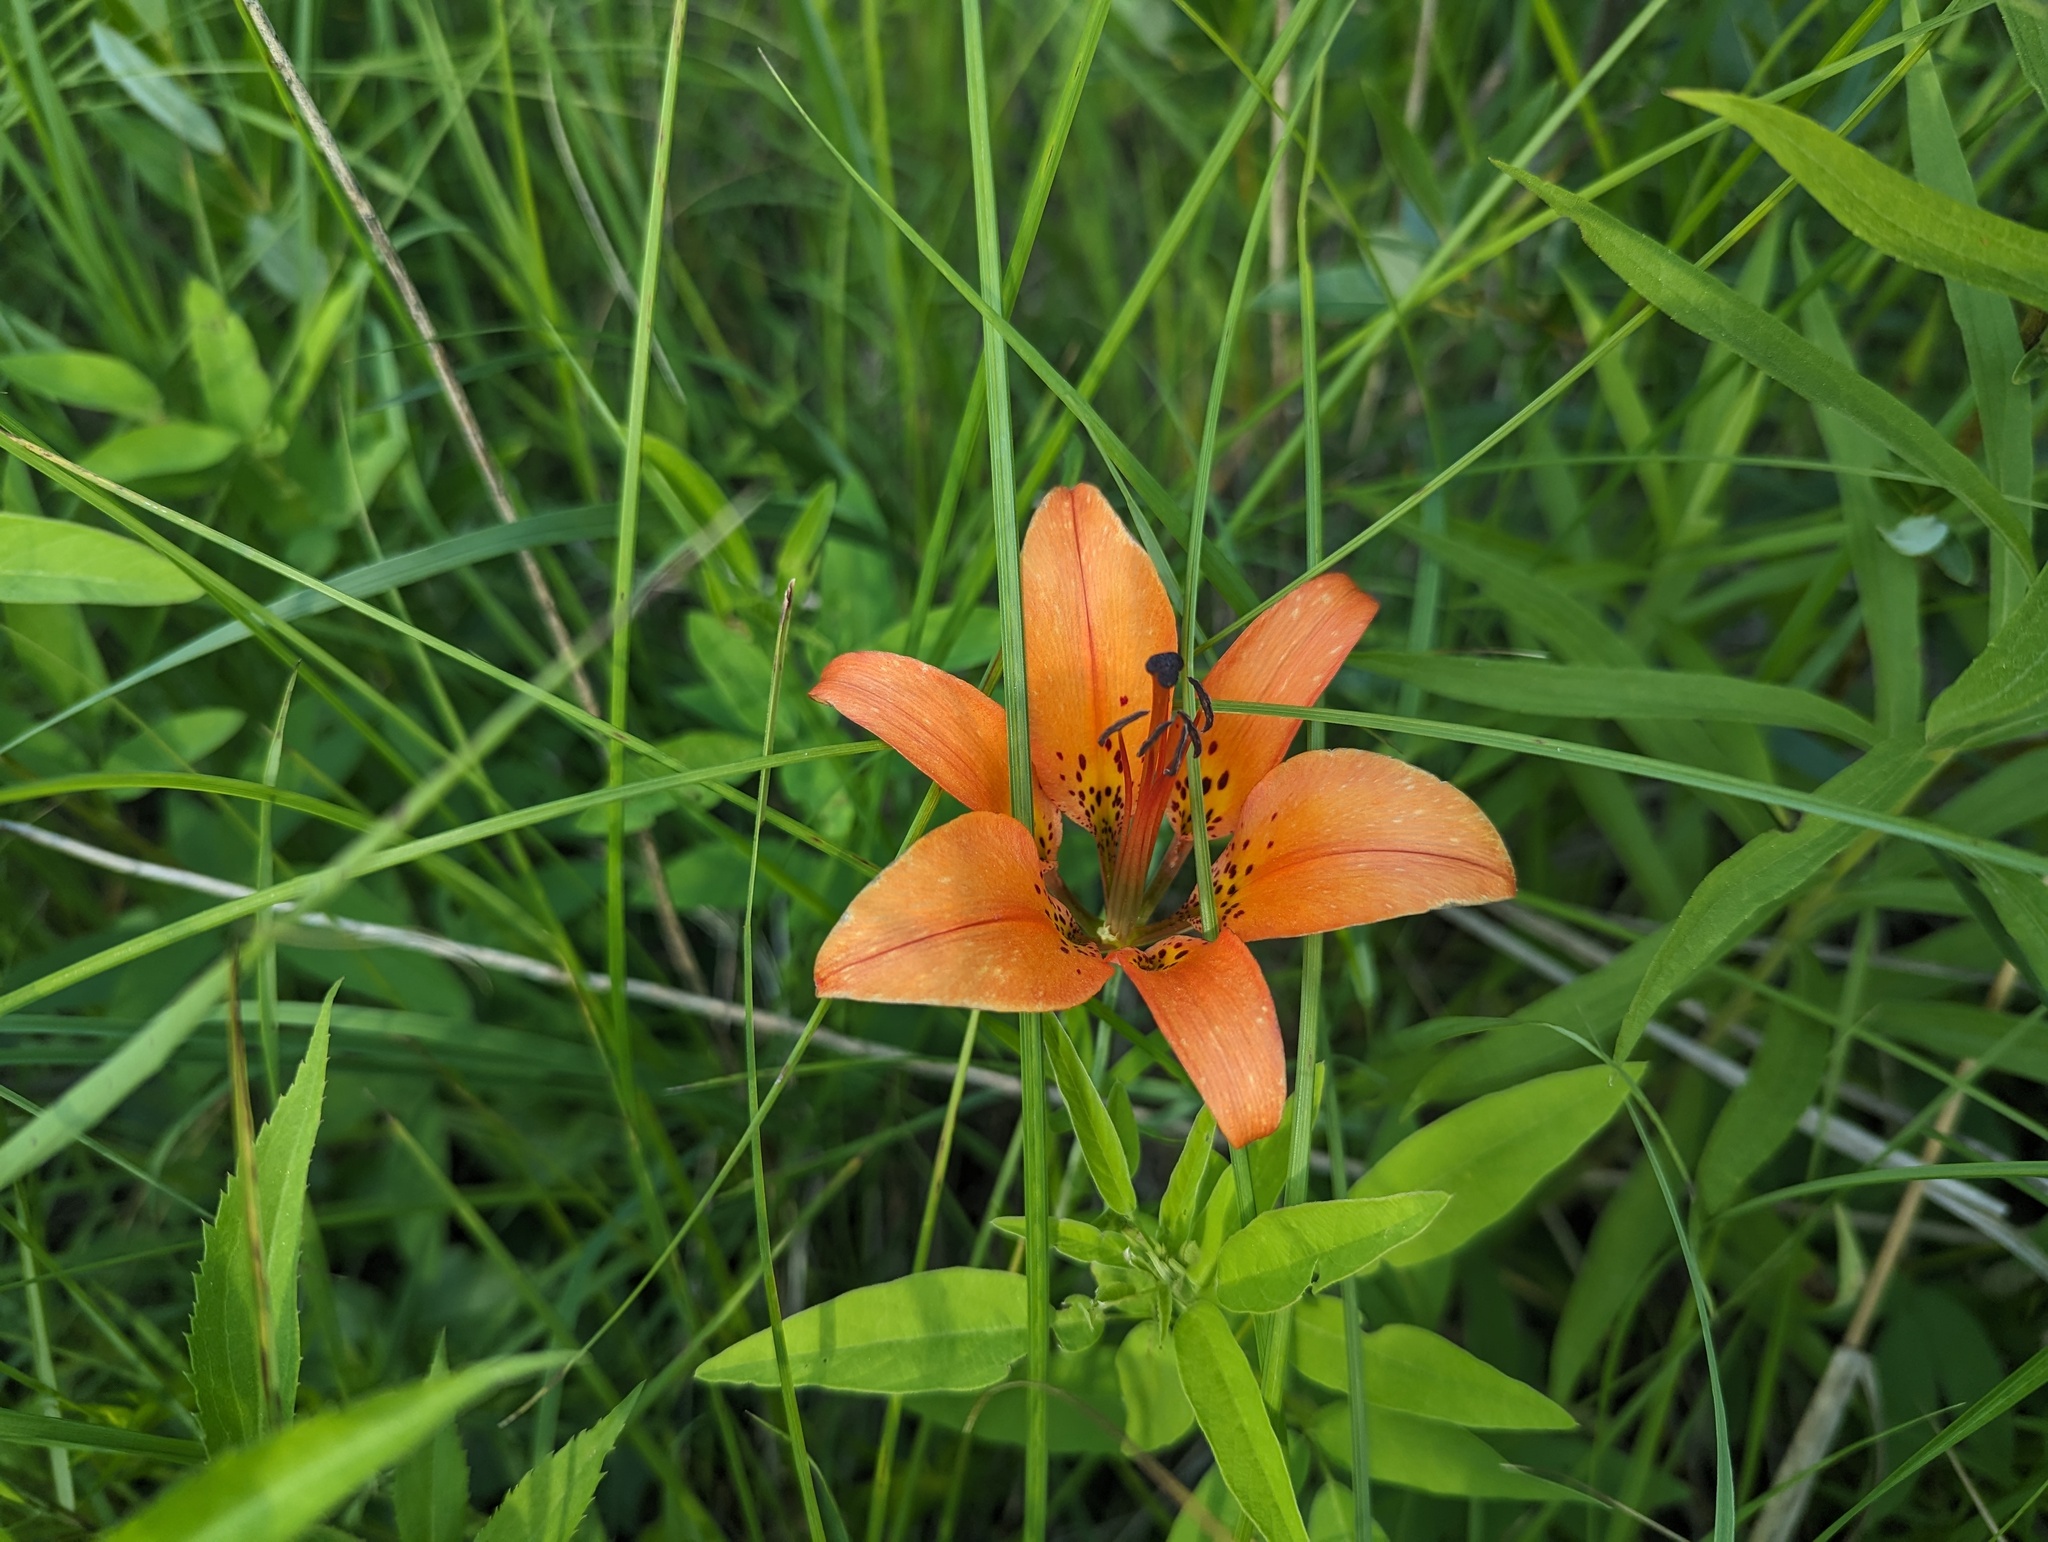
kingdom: Plantae
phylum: Tracheophyta
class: Liliopsida
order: Liliales
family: Liliaceae
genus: Lilium
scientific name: Lilium philadelphicum
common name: Red lily
